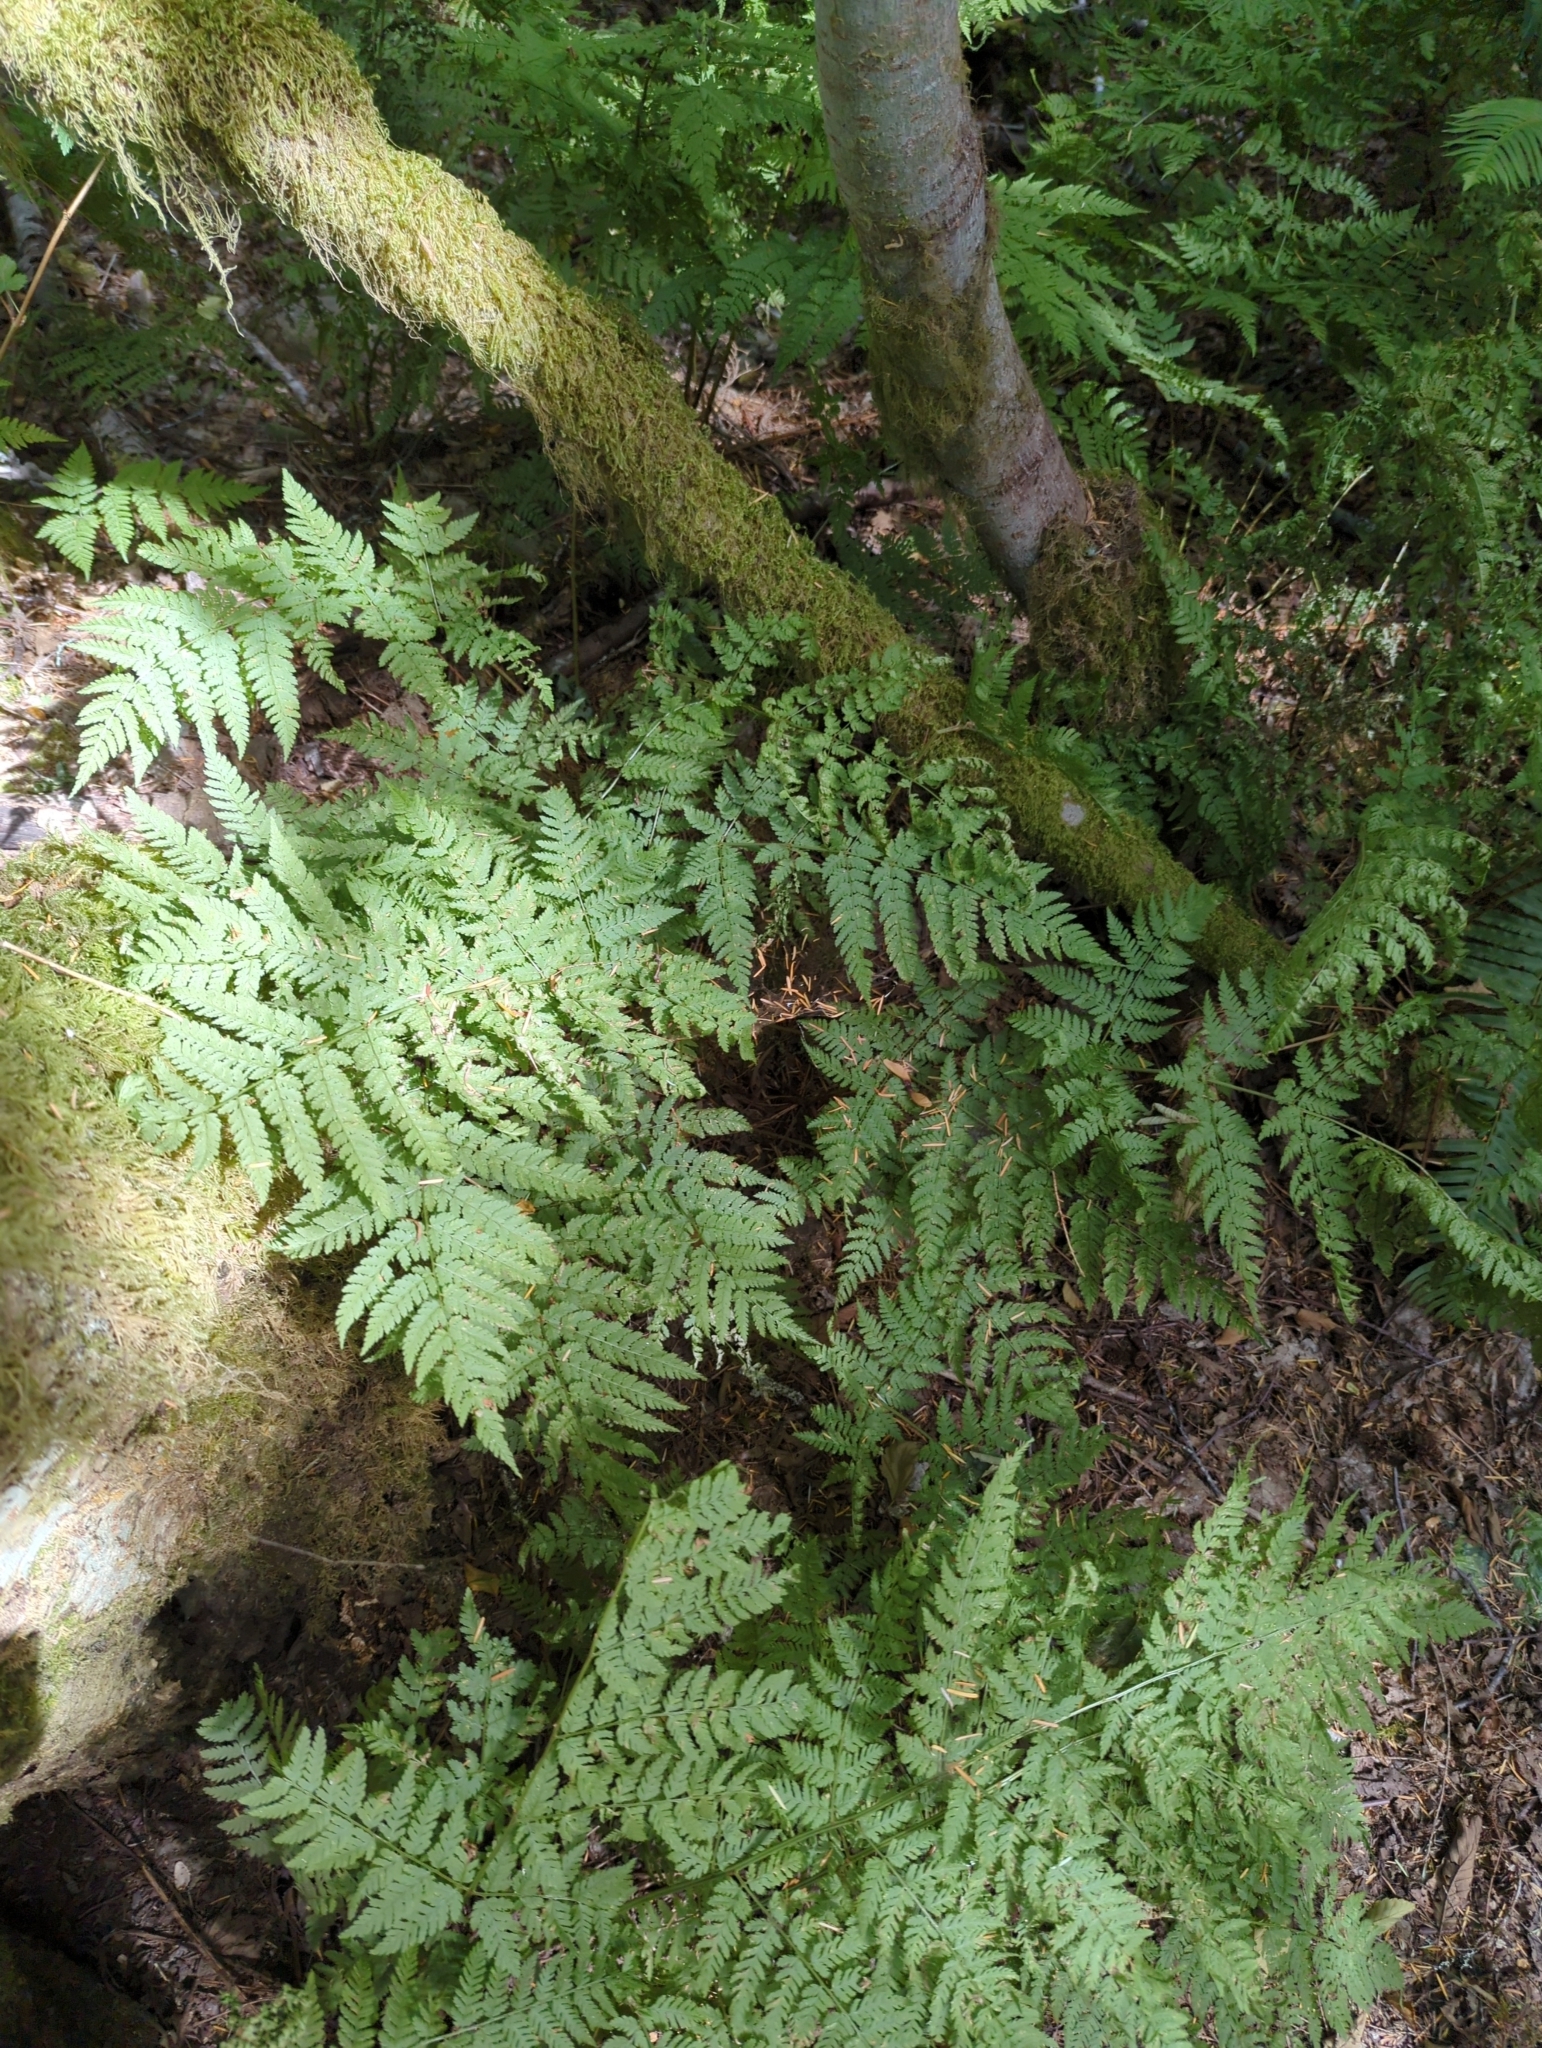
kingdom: Plantae
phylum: Tracheophyta
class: Polypodiopsida
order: Polypodiales
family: Dryopteridaceae
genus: Dryopteris
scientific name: Dryopteris expansa
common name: Northern buckler fern
